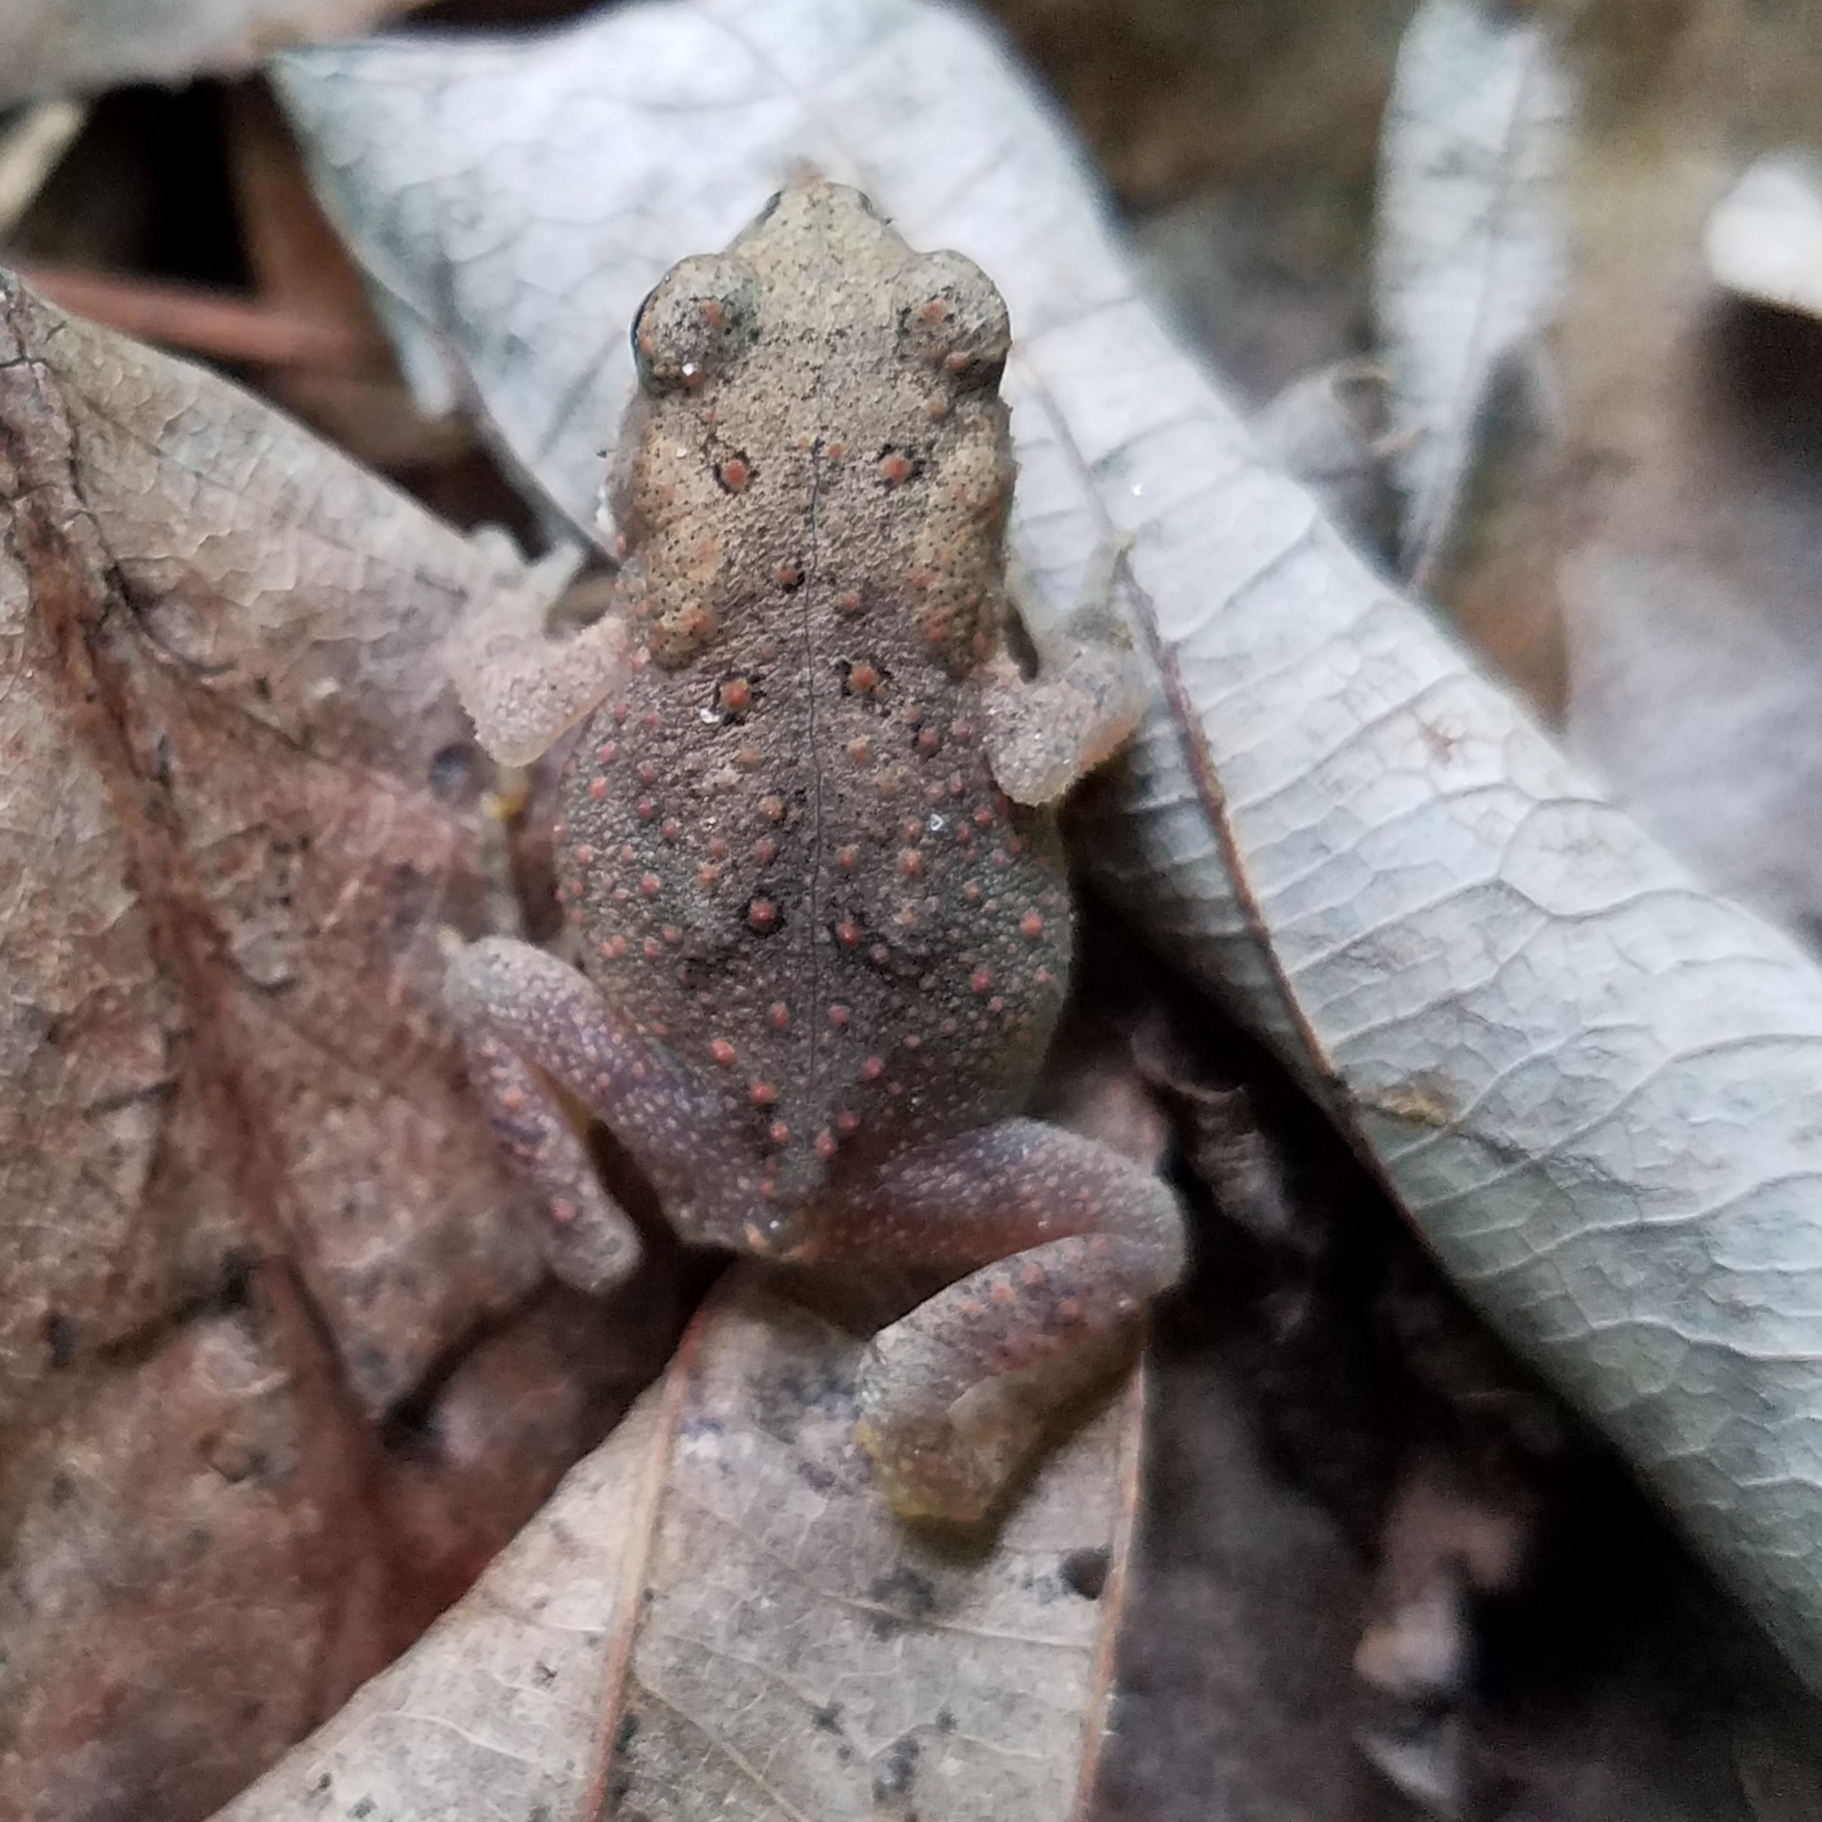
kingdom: Animalia
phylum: Chordata
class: Amphibia
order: Anura
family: Bufonidae
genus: Anaxyrus
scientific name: Anaxyrus americanus
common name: American toad
